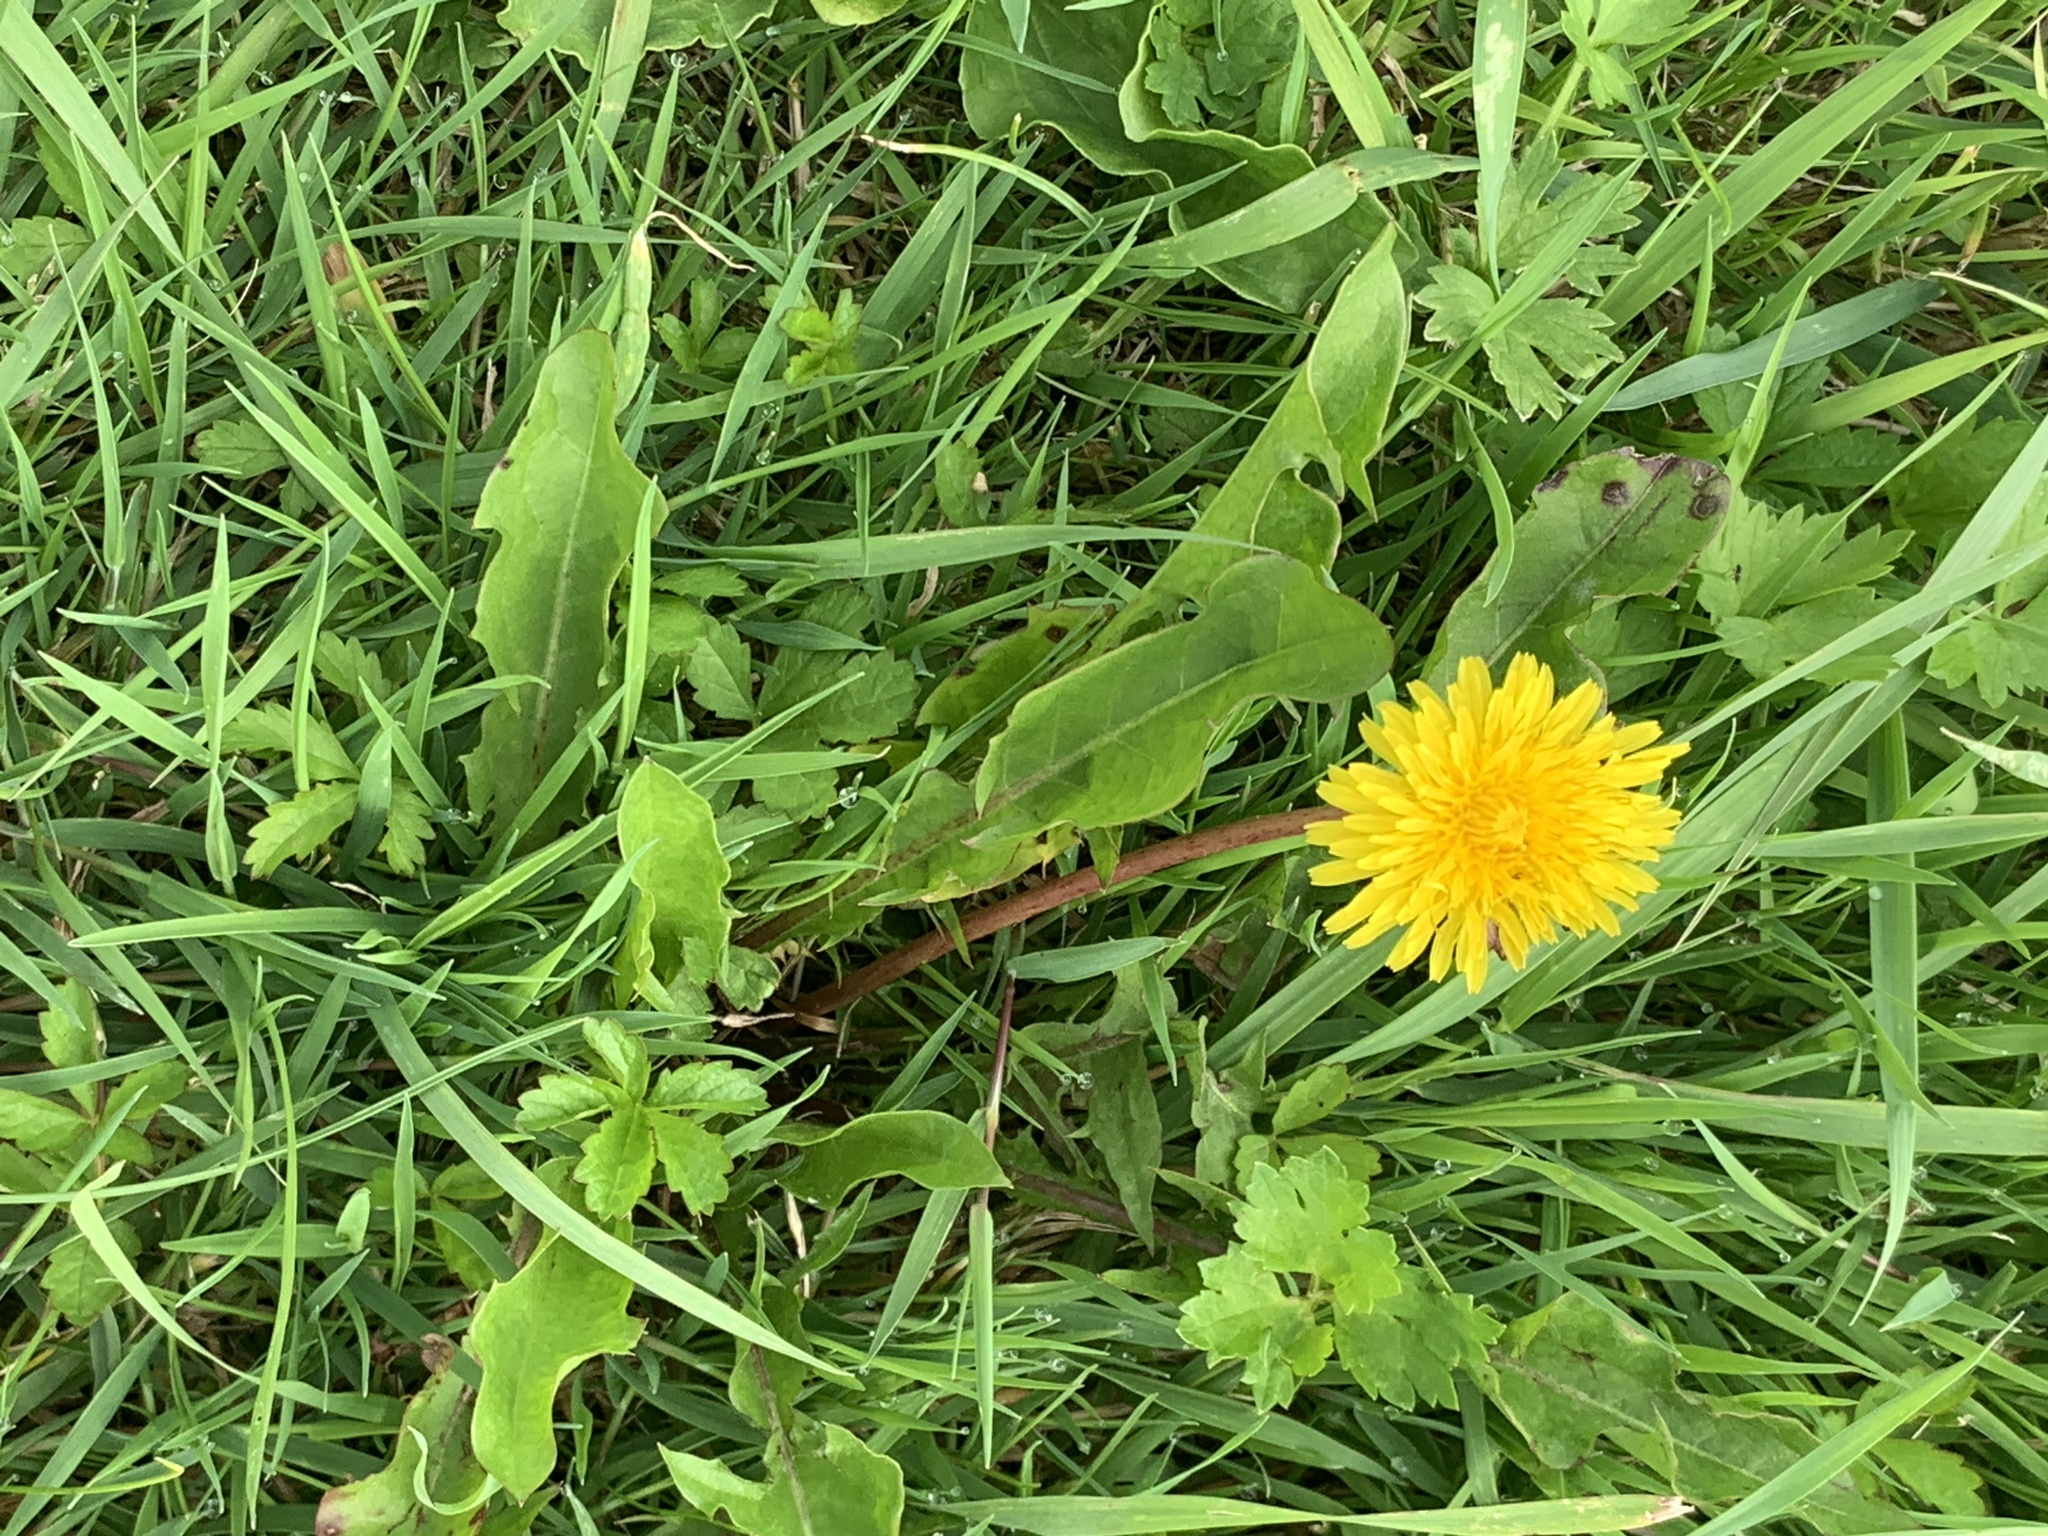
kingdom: Plantae
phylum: Tracheophyta
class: Magnoliopsida
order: Asterales
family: Asteraceae
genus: Taraxacum
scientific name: Taraxacum officinale
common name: Common dandelion
